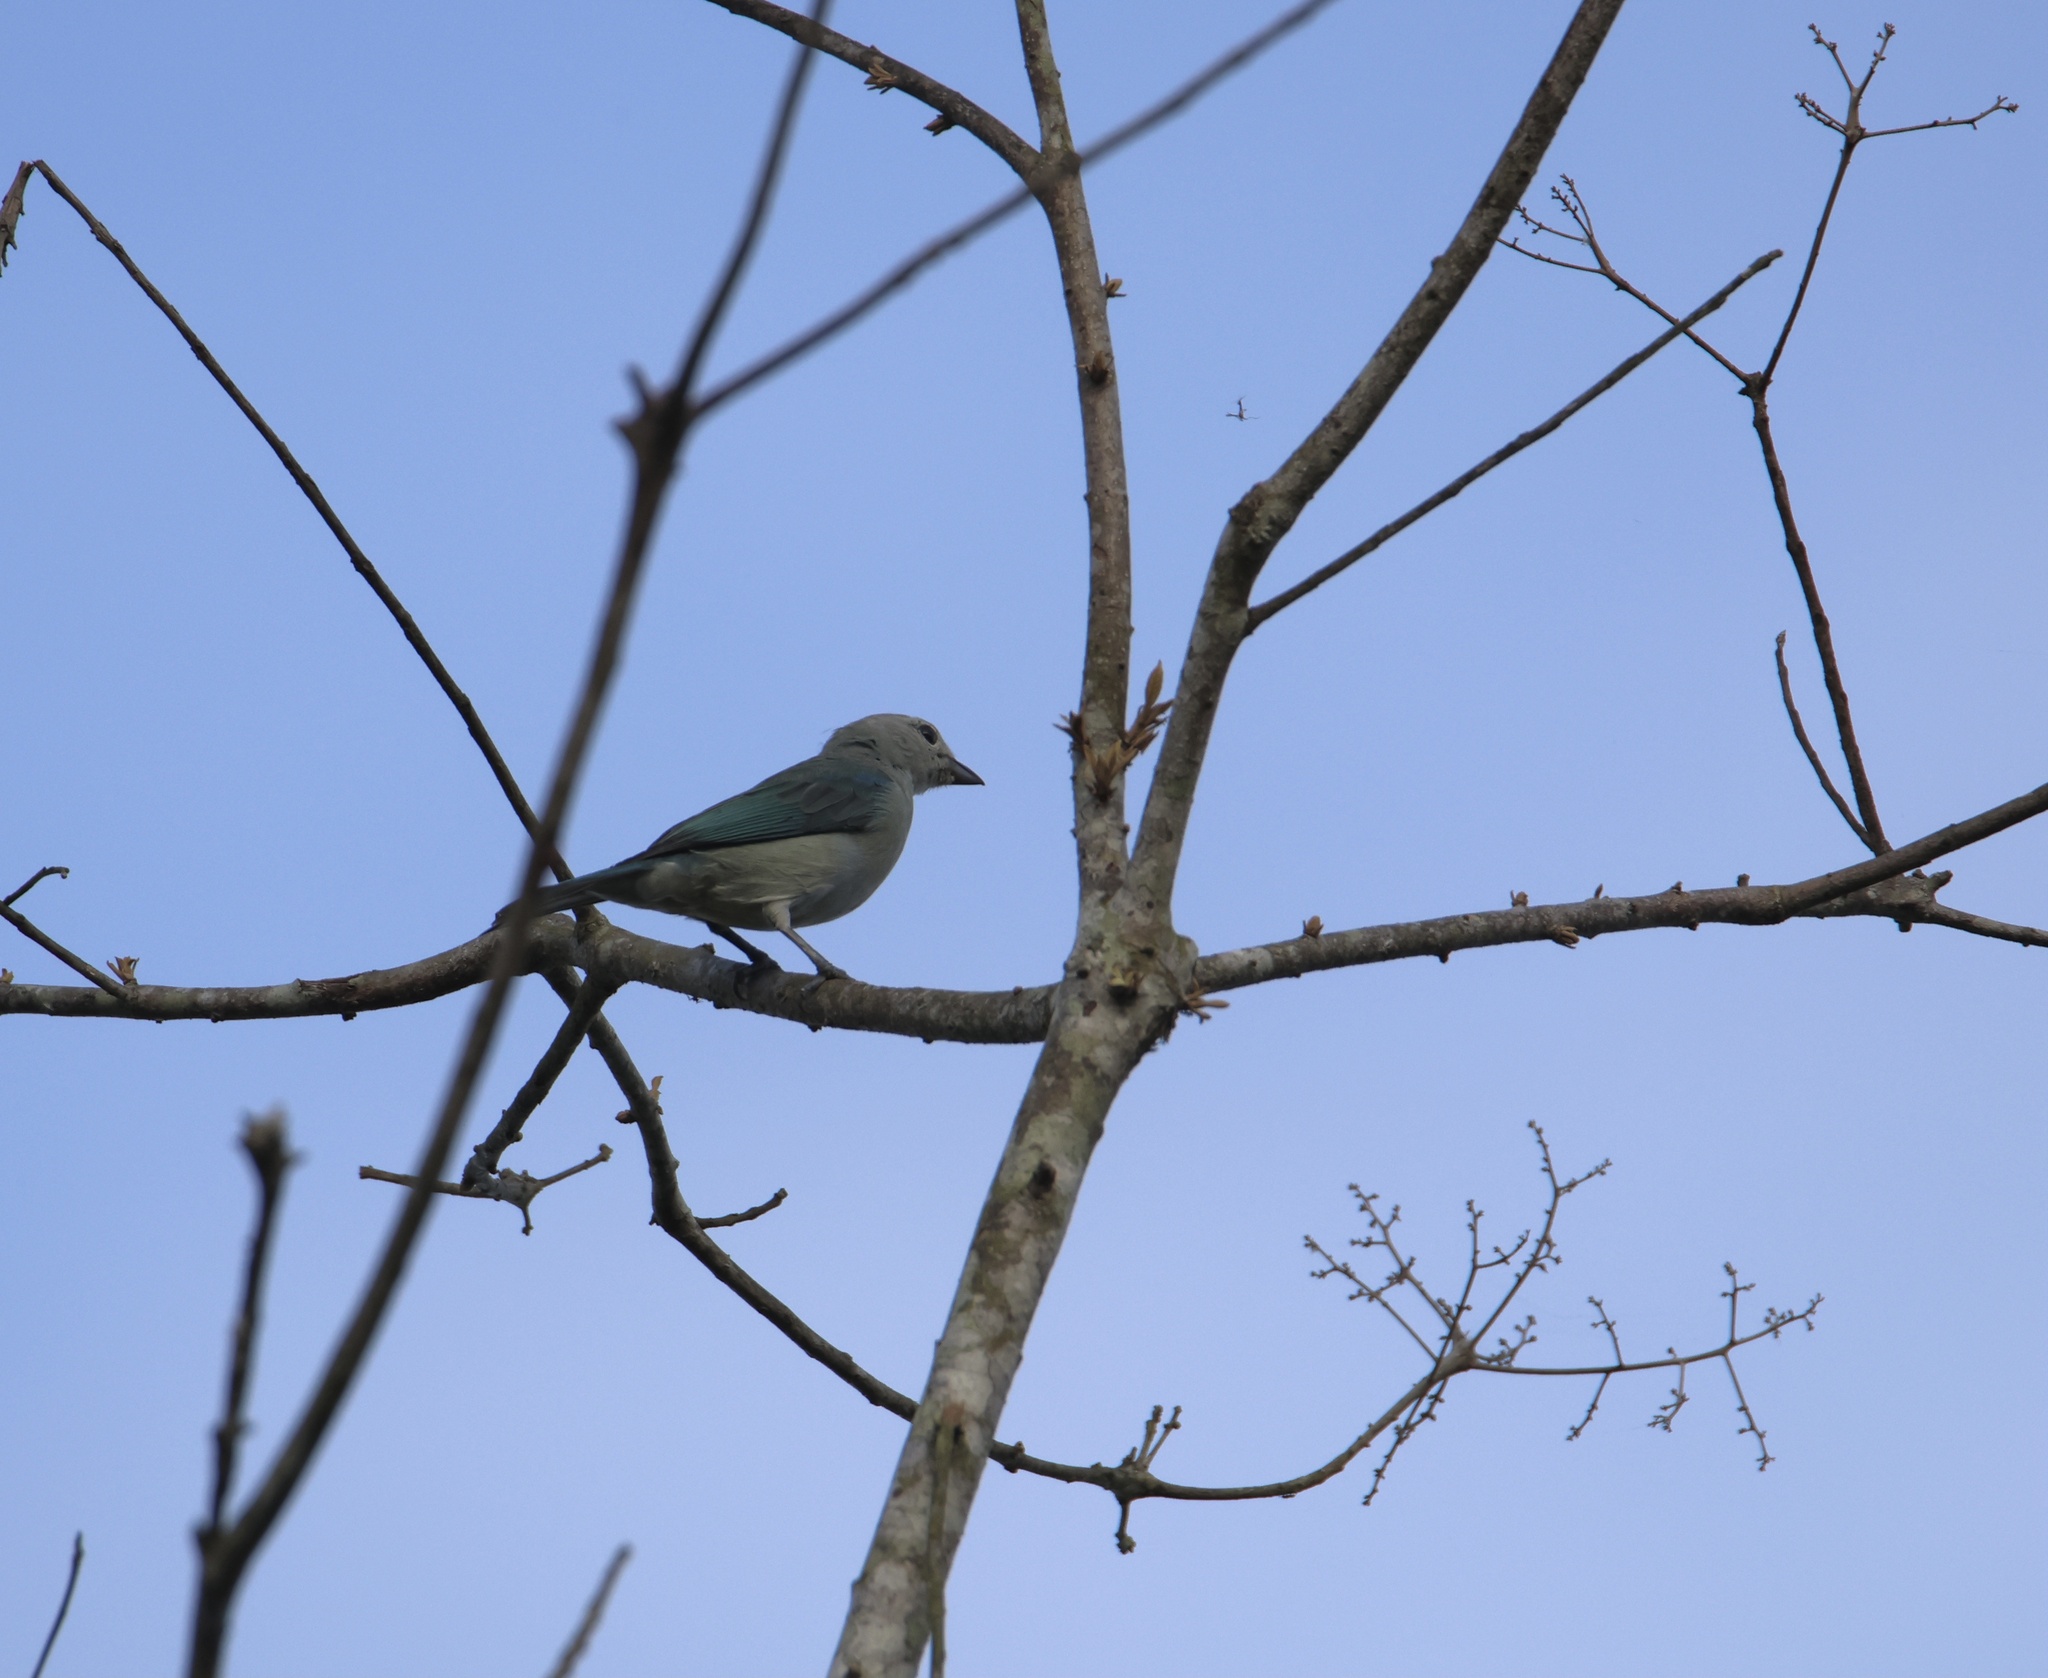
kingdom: Animalia
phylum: Chordata
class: Aves
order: Passeriformes
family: Thraupidae
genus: Thraupis
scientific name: Thraupis episcopus
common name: Blue-grey tanager
